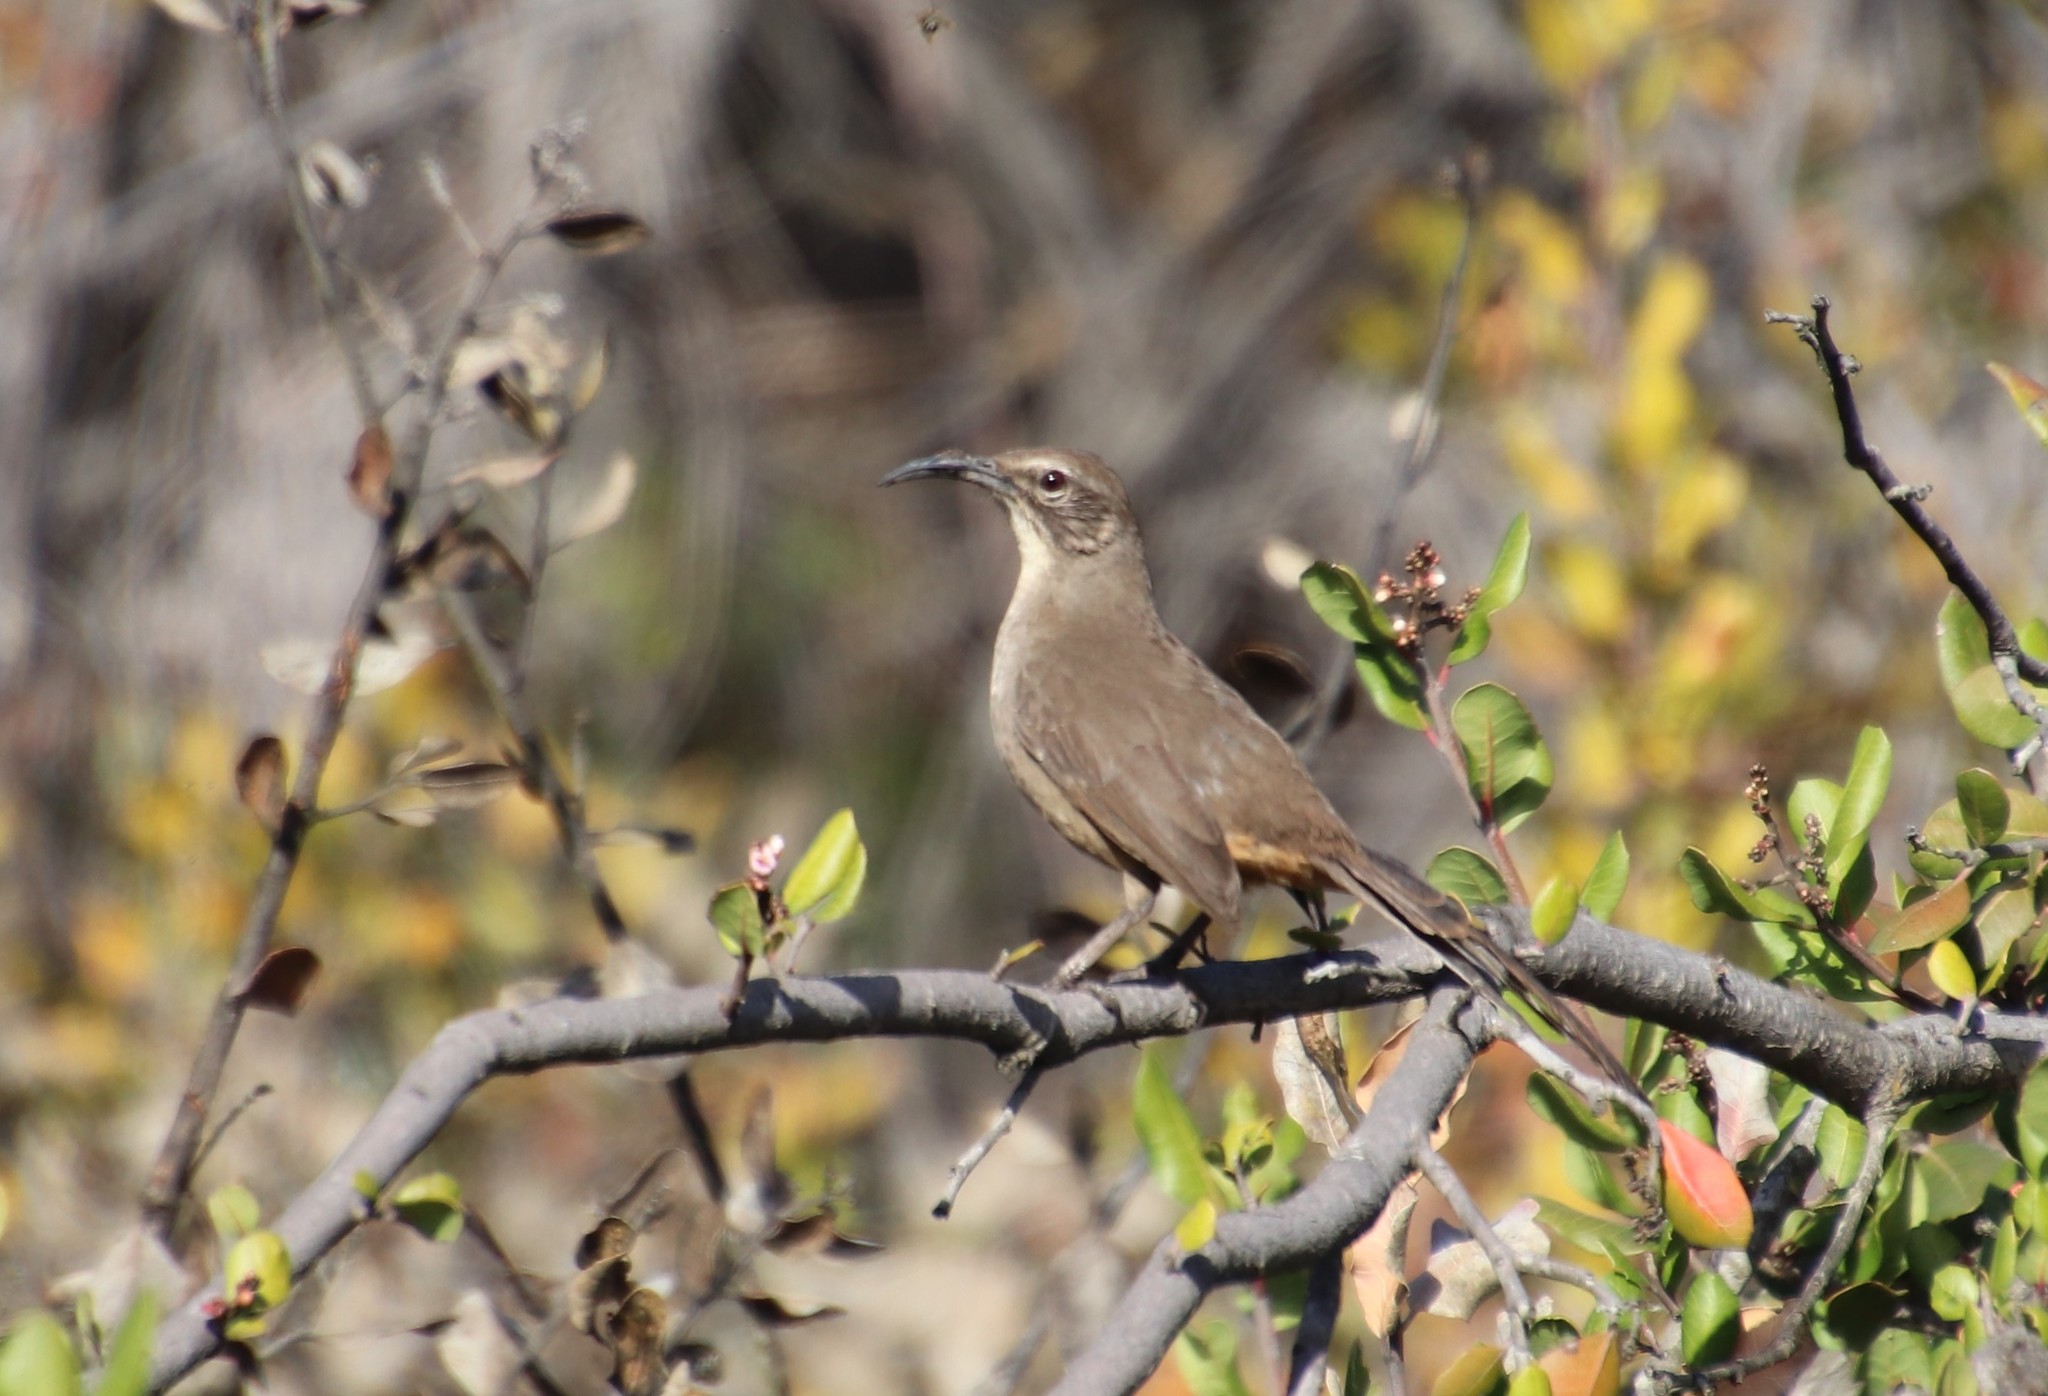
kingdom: Animalia
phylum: Chordata
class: Aves
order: Passeriformes
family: Mimidae
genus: Toxostoma
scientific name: Toxostoma redivivum
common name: California thrasher
